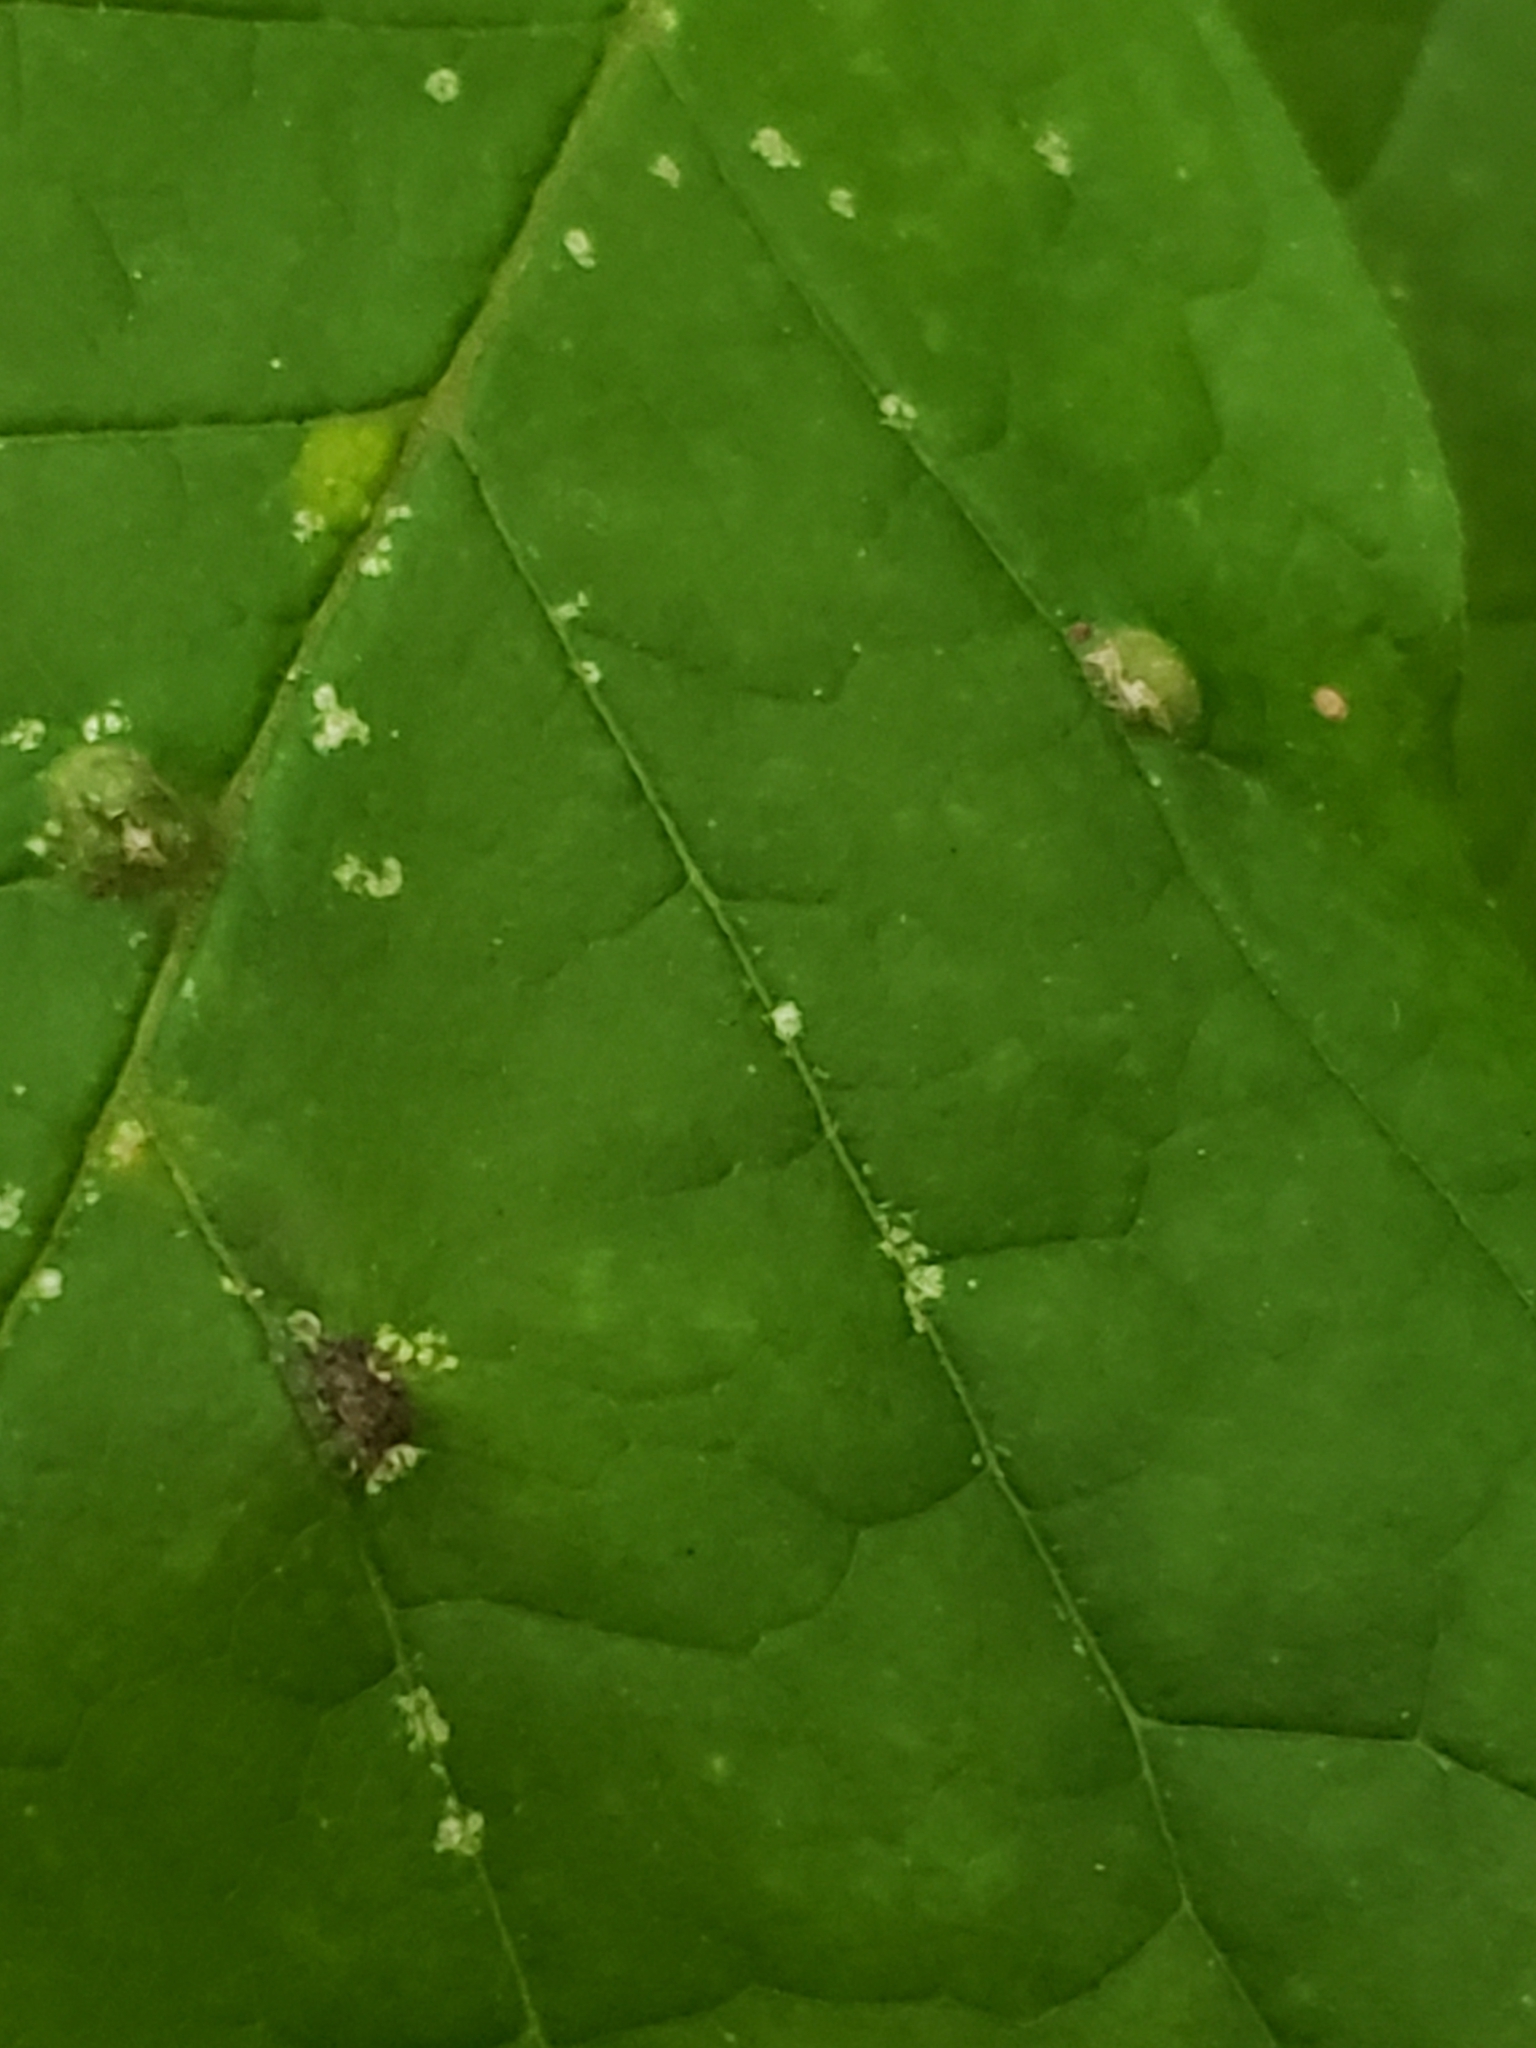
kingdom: Animalia
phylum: Arthropoda
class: Arachnida
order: Trombidiformes
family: Eriophyidae
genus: Aceria
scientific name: Aceria fraxinicola
